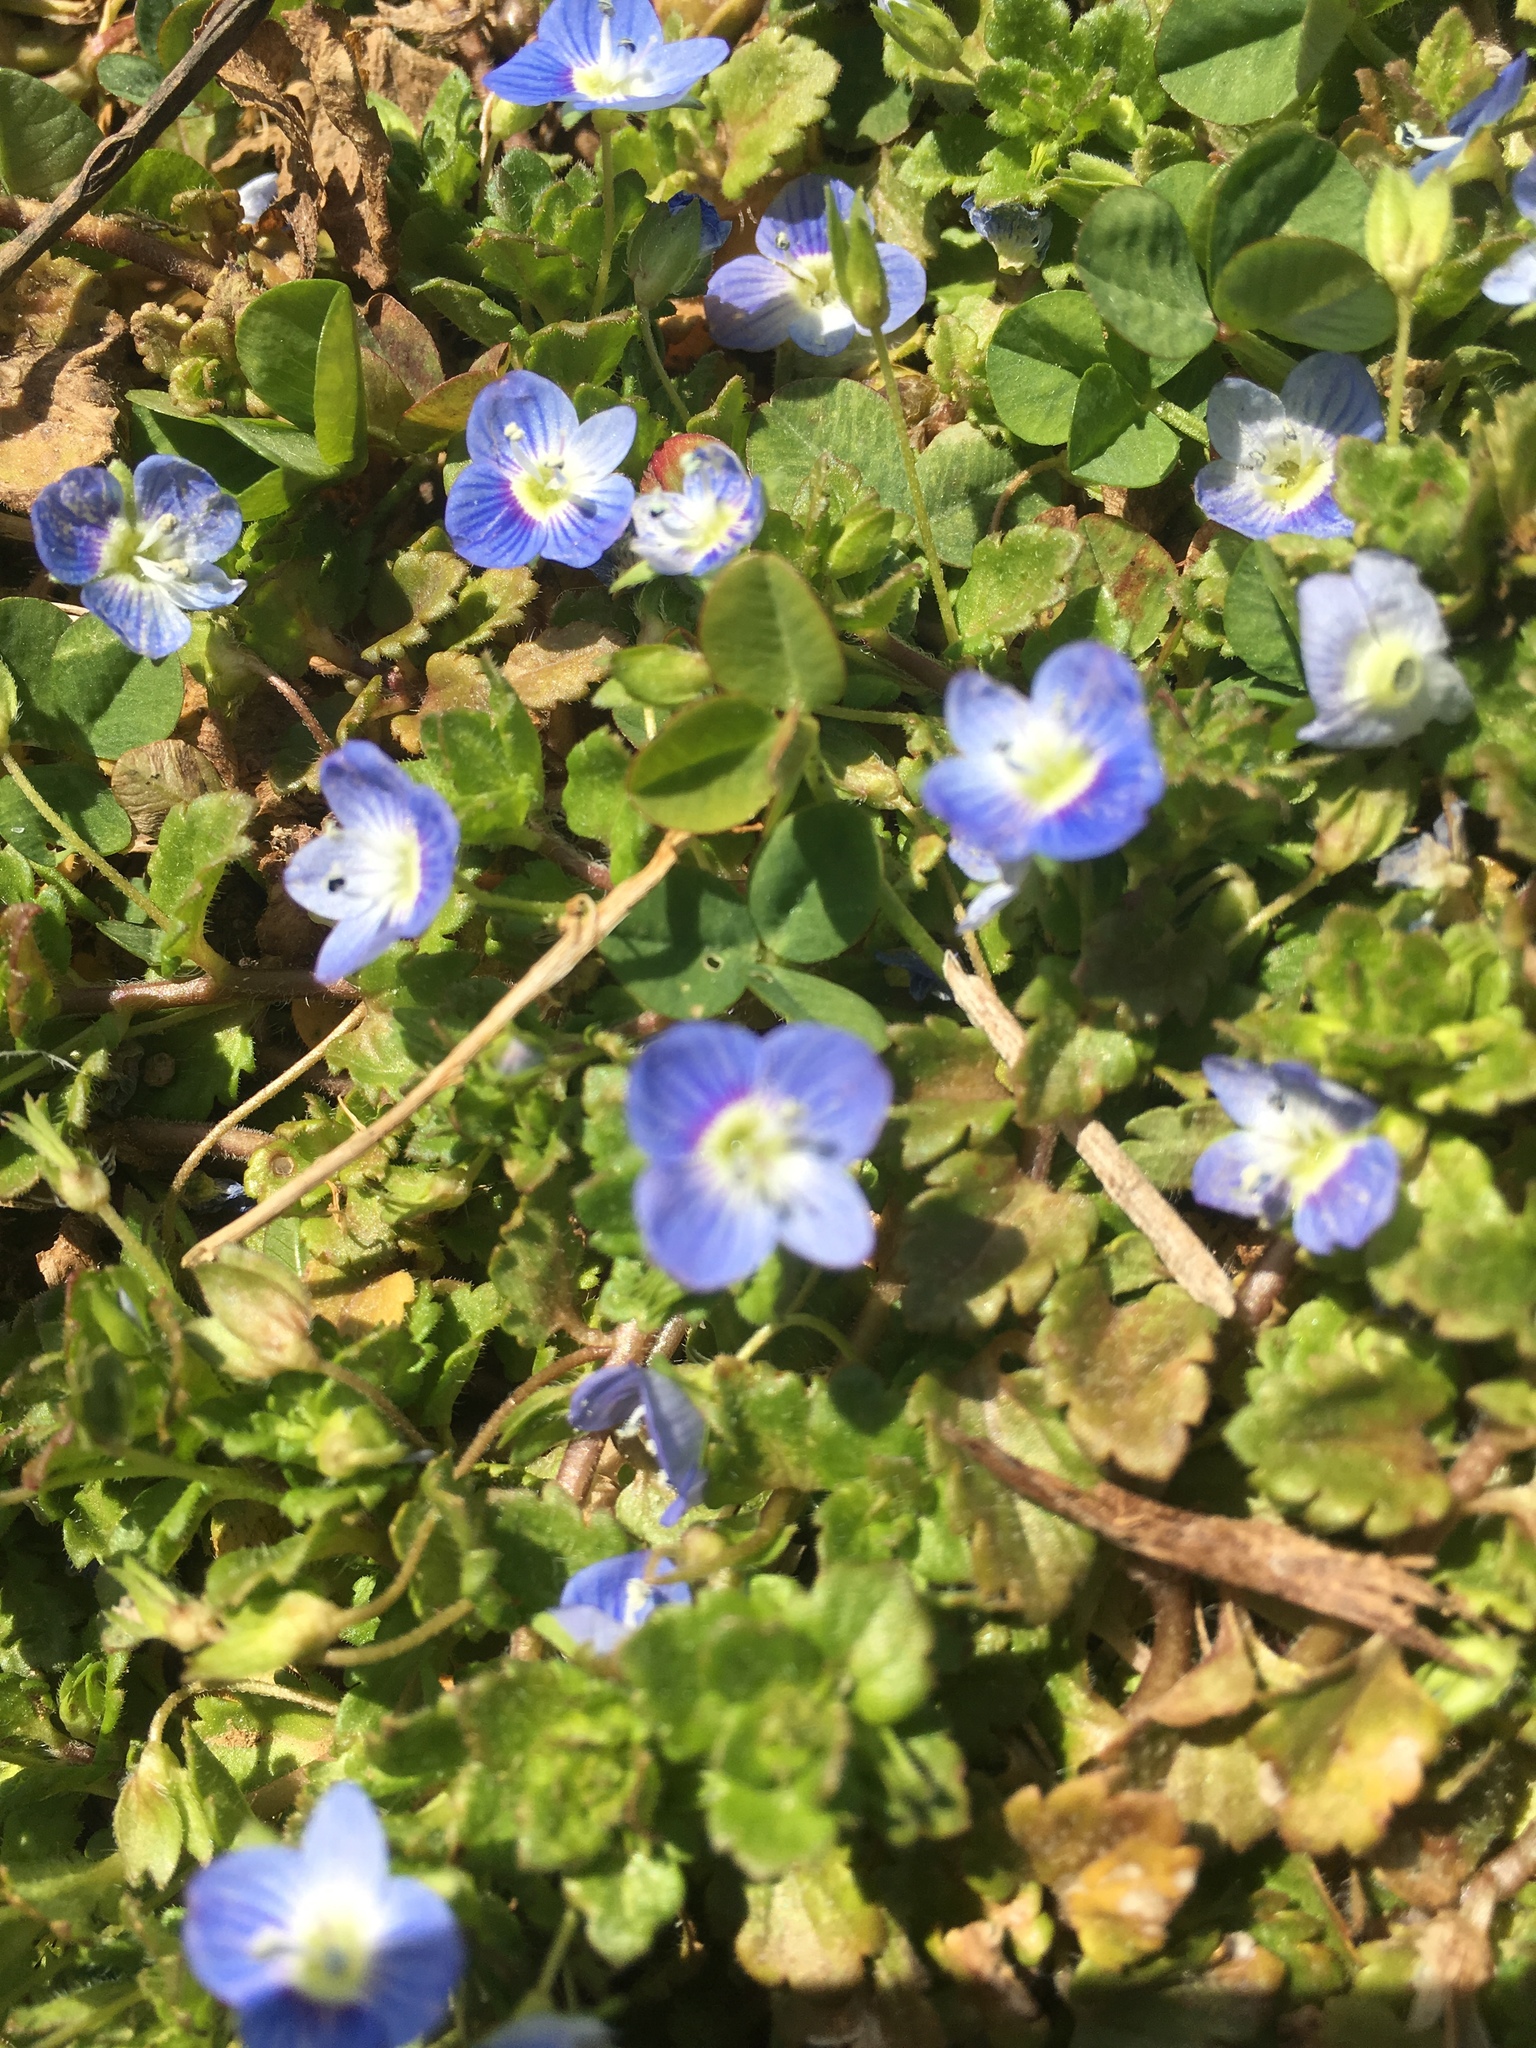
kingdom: Plantae
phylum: Tracheophyta
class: Magnoliopsida
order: Lamiales
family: Plantaginaceae
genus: Veronica
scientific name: Veronica persica
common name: Common field-speedwell
